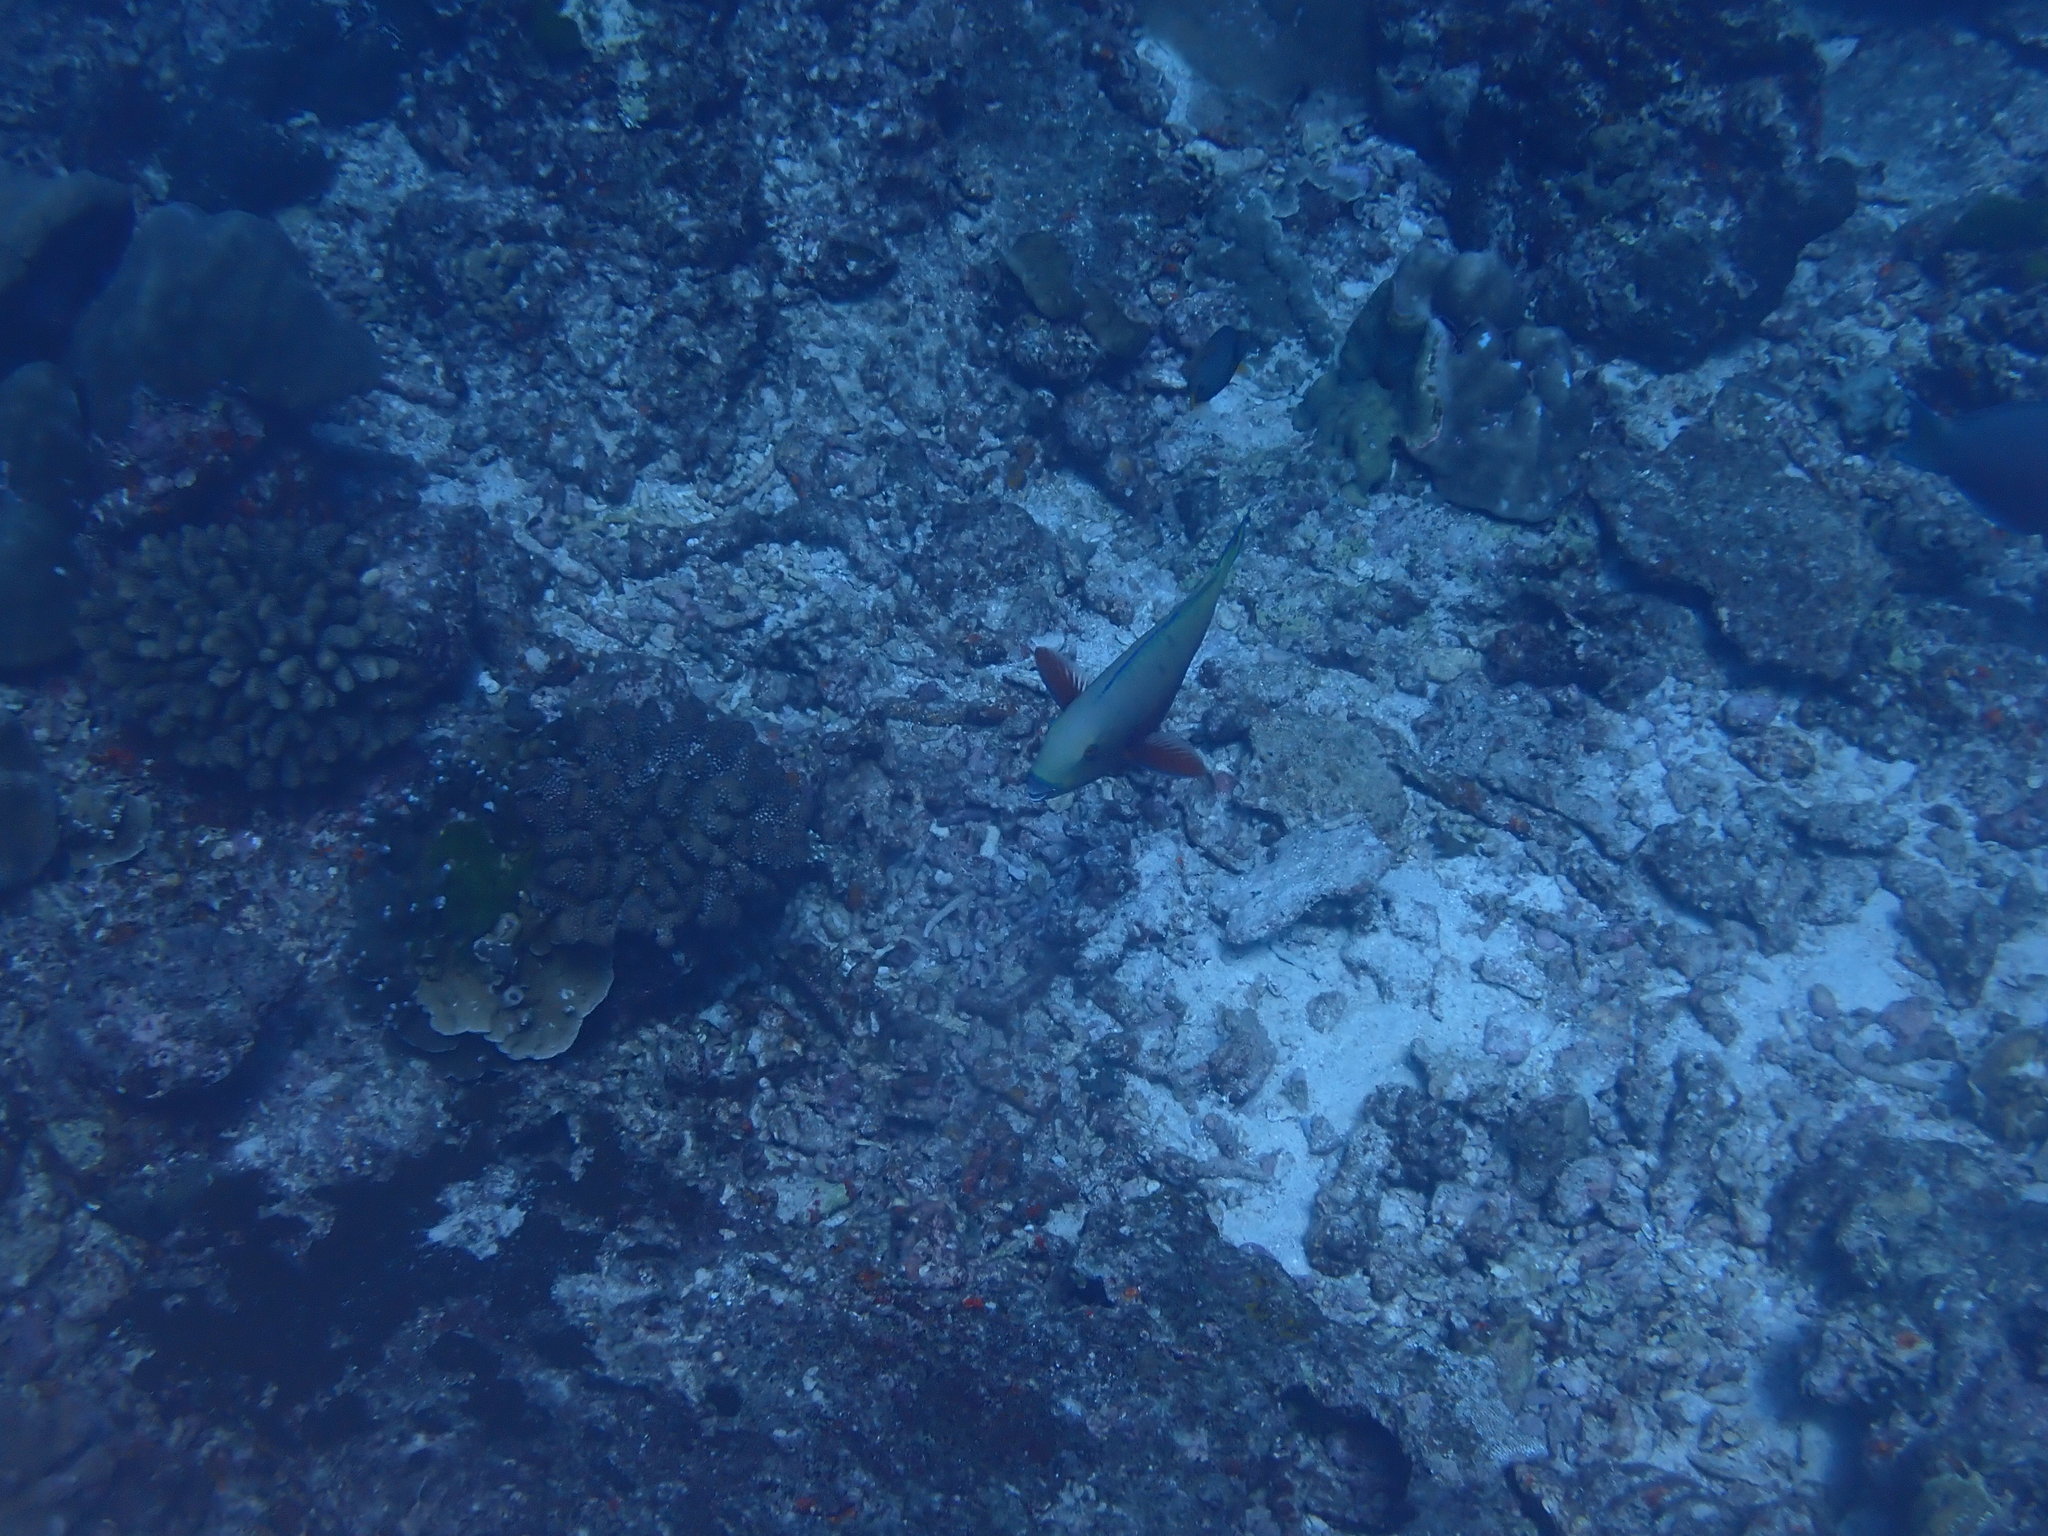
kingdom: Animalia
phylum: Chordata
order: Perciformes
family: Scaridae
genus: Chlorurus
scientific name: Chlorurus strongylocephalus
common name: Steephead parrotfish
